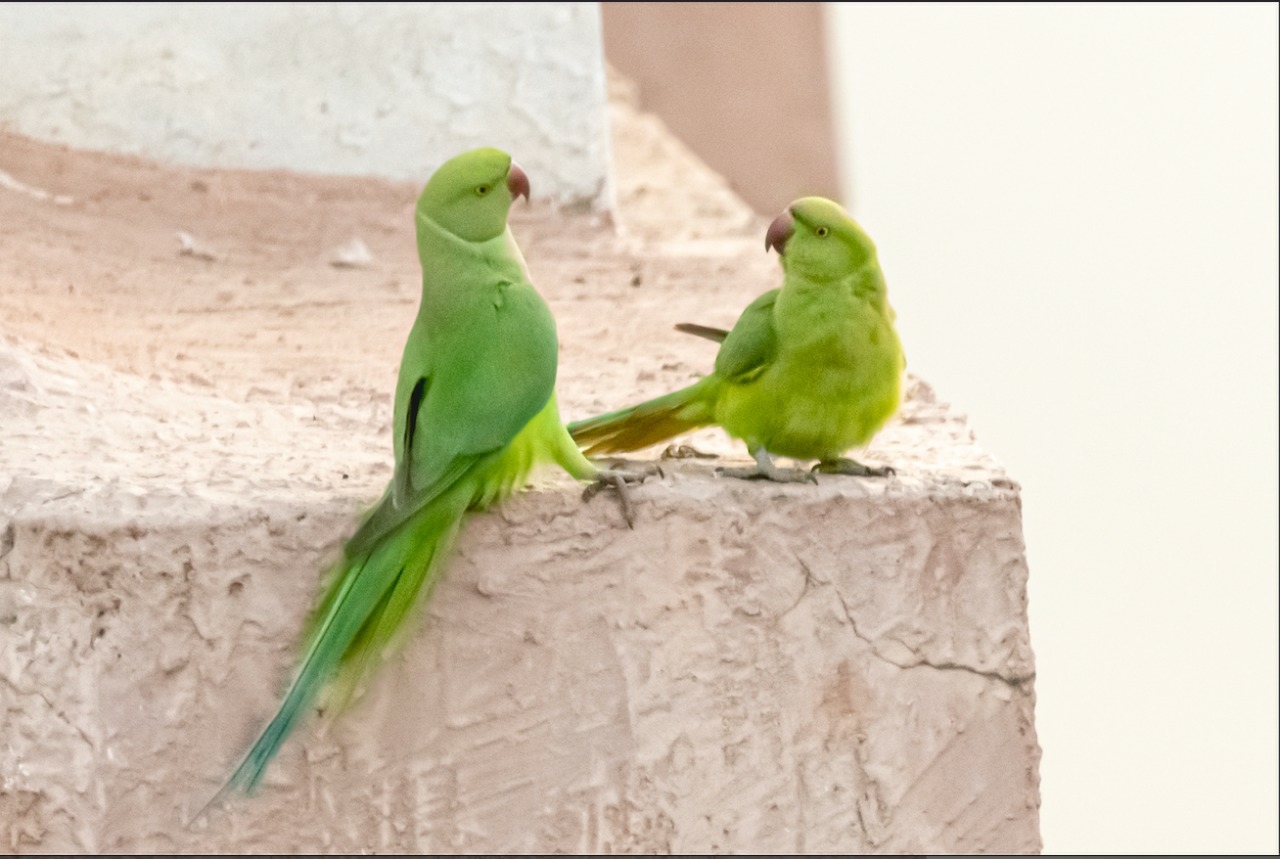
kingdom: Animalia
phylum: Chordata
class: Aves
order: Psittaciformes
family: Psittacidae
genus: Psittacula
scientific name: Psittacula krameri
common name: Rose-ringed parakeet
